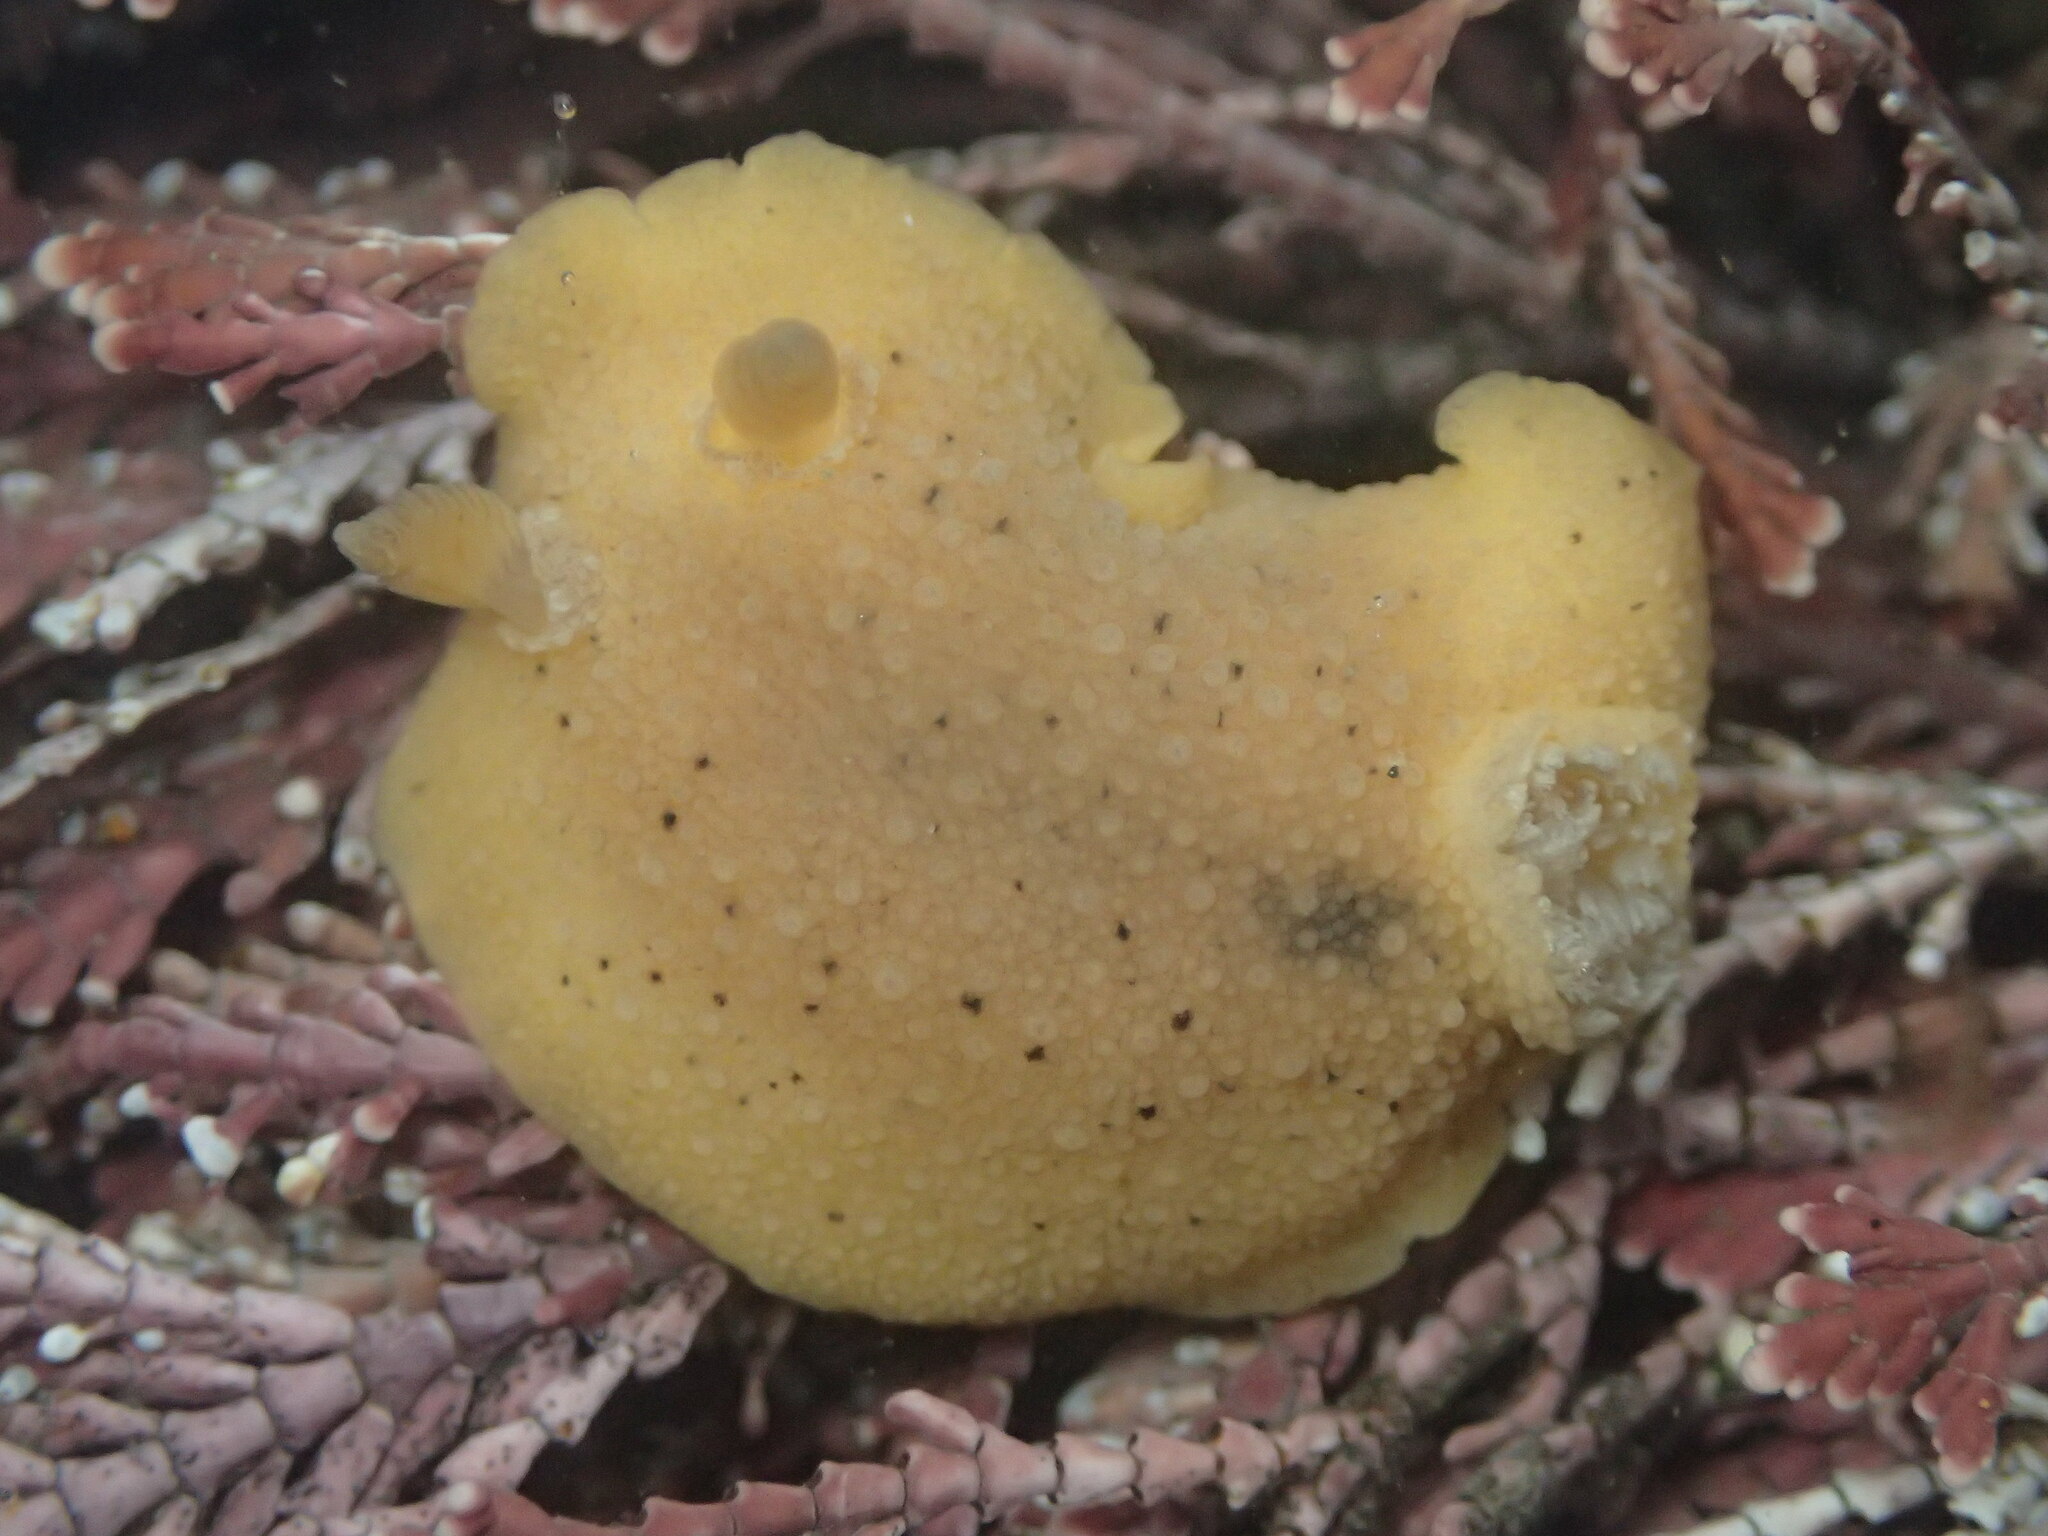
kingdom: Animalia
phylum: Mollusca
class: Gastropoda
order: Nudibranchia
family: Discodorididae
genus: Geitodoris
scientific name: Geitodoris heathi
